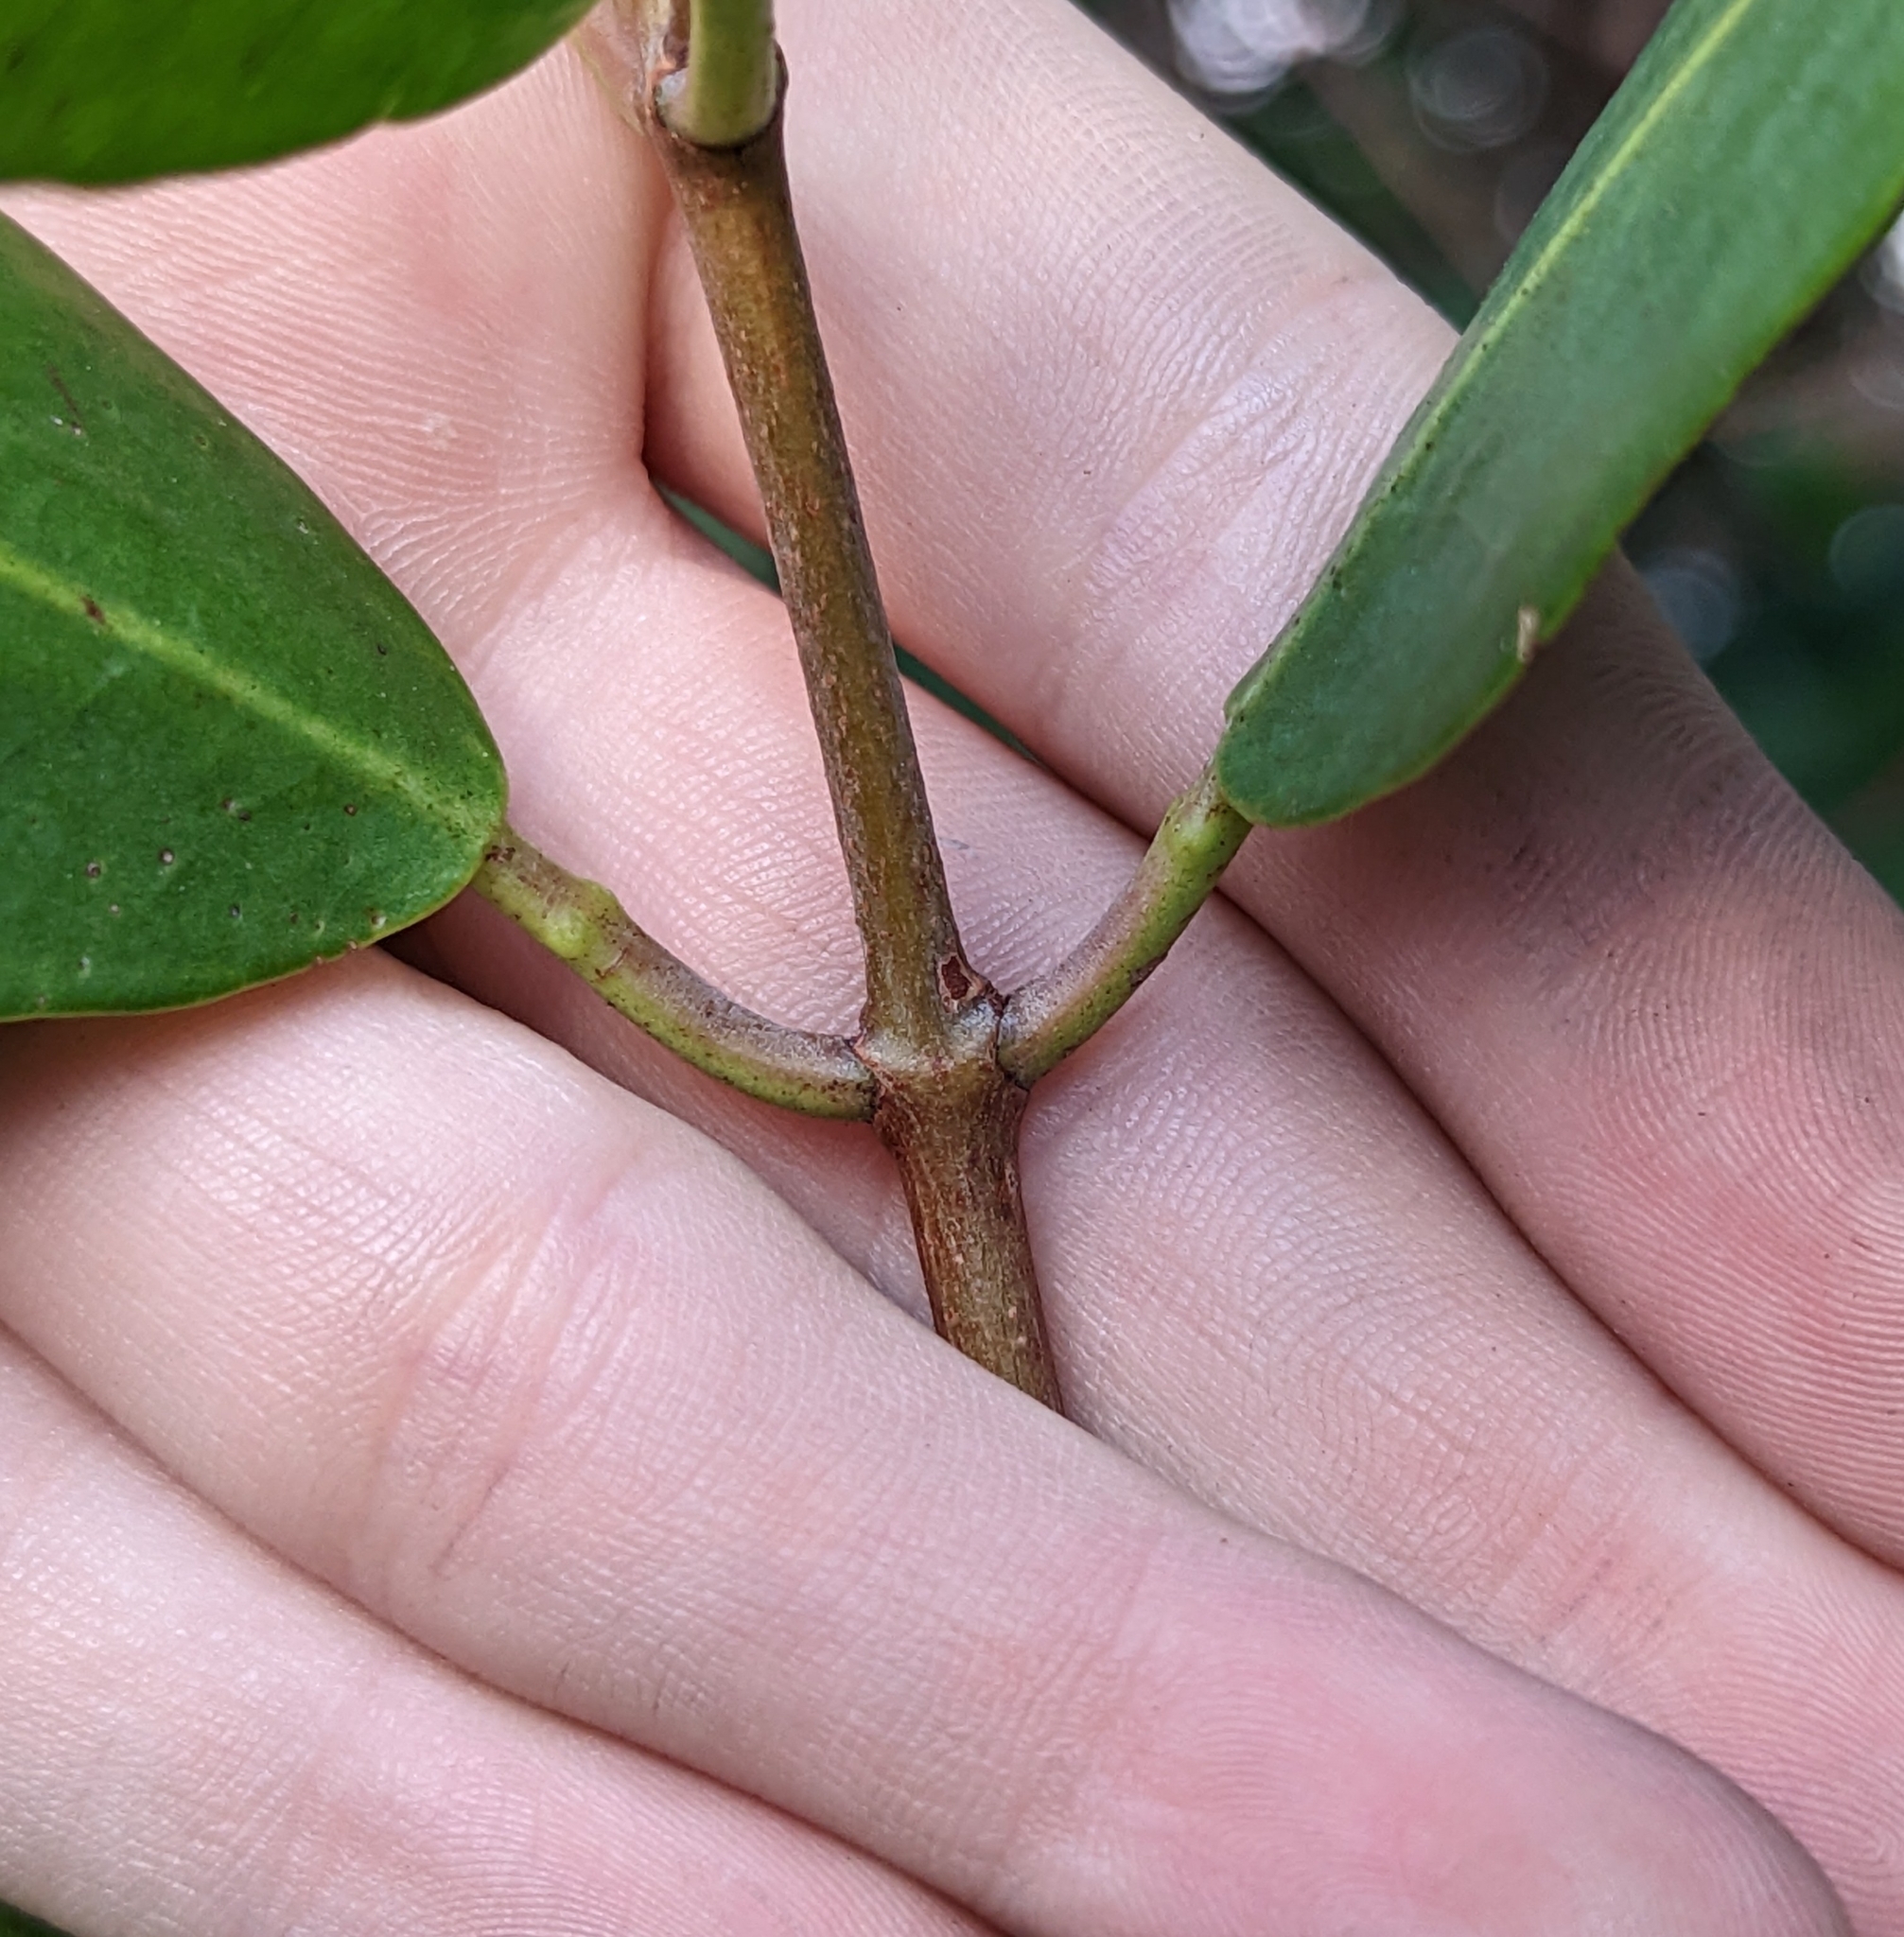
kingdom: Plantae
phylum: Tracheophyta
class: Magnoliopsida
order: Myrtales
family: Combretaceae
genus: Laguncularia
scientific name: Laguncularia racemosa
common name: White mangrove
